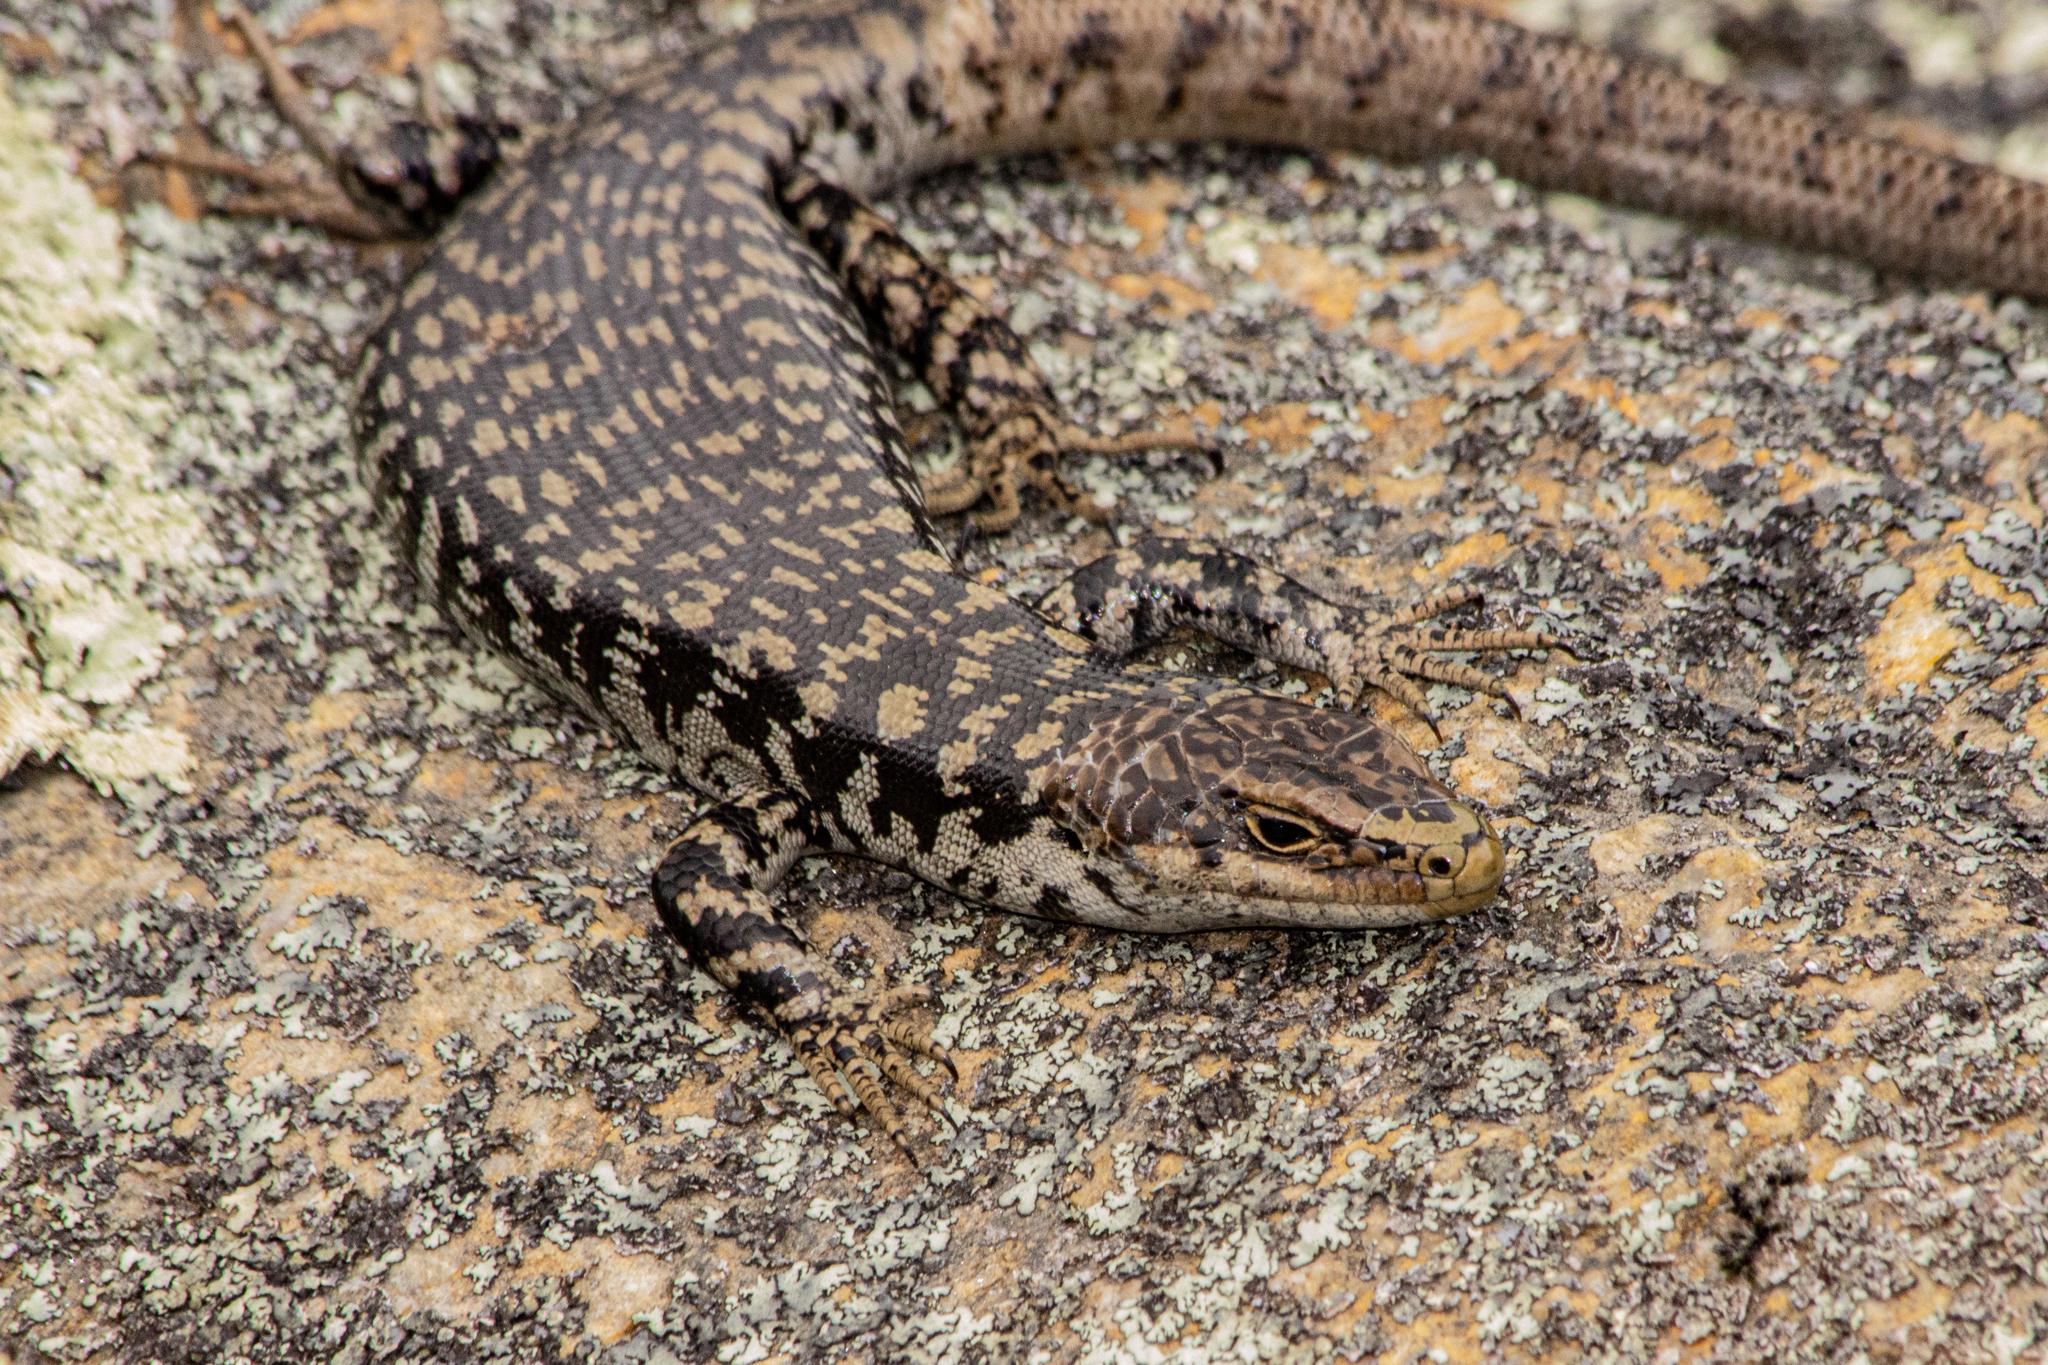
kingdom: Animalia
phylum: Chordata
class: Squamata
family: Scincidae
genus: Oligosoma
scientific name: Oligosoma otagense
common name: Otago skink
